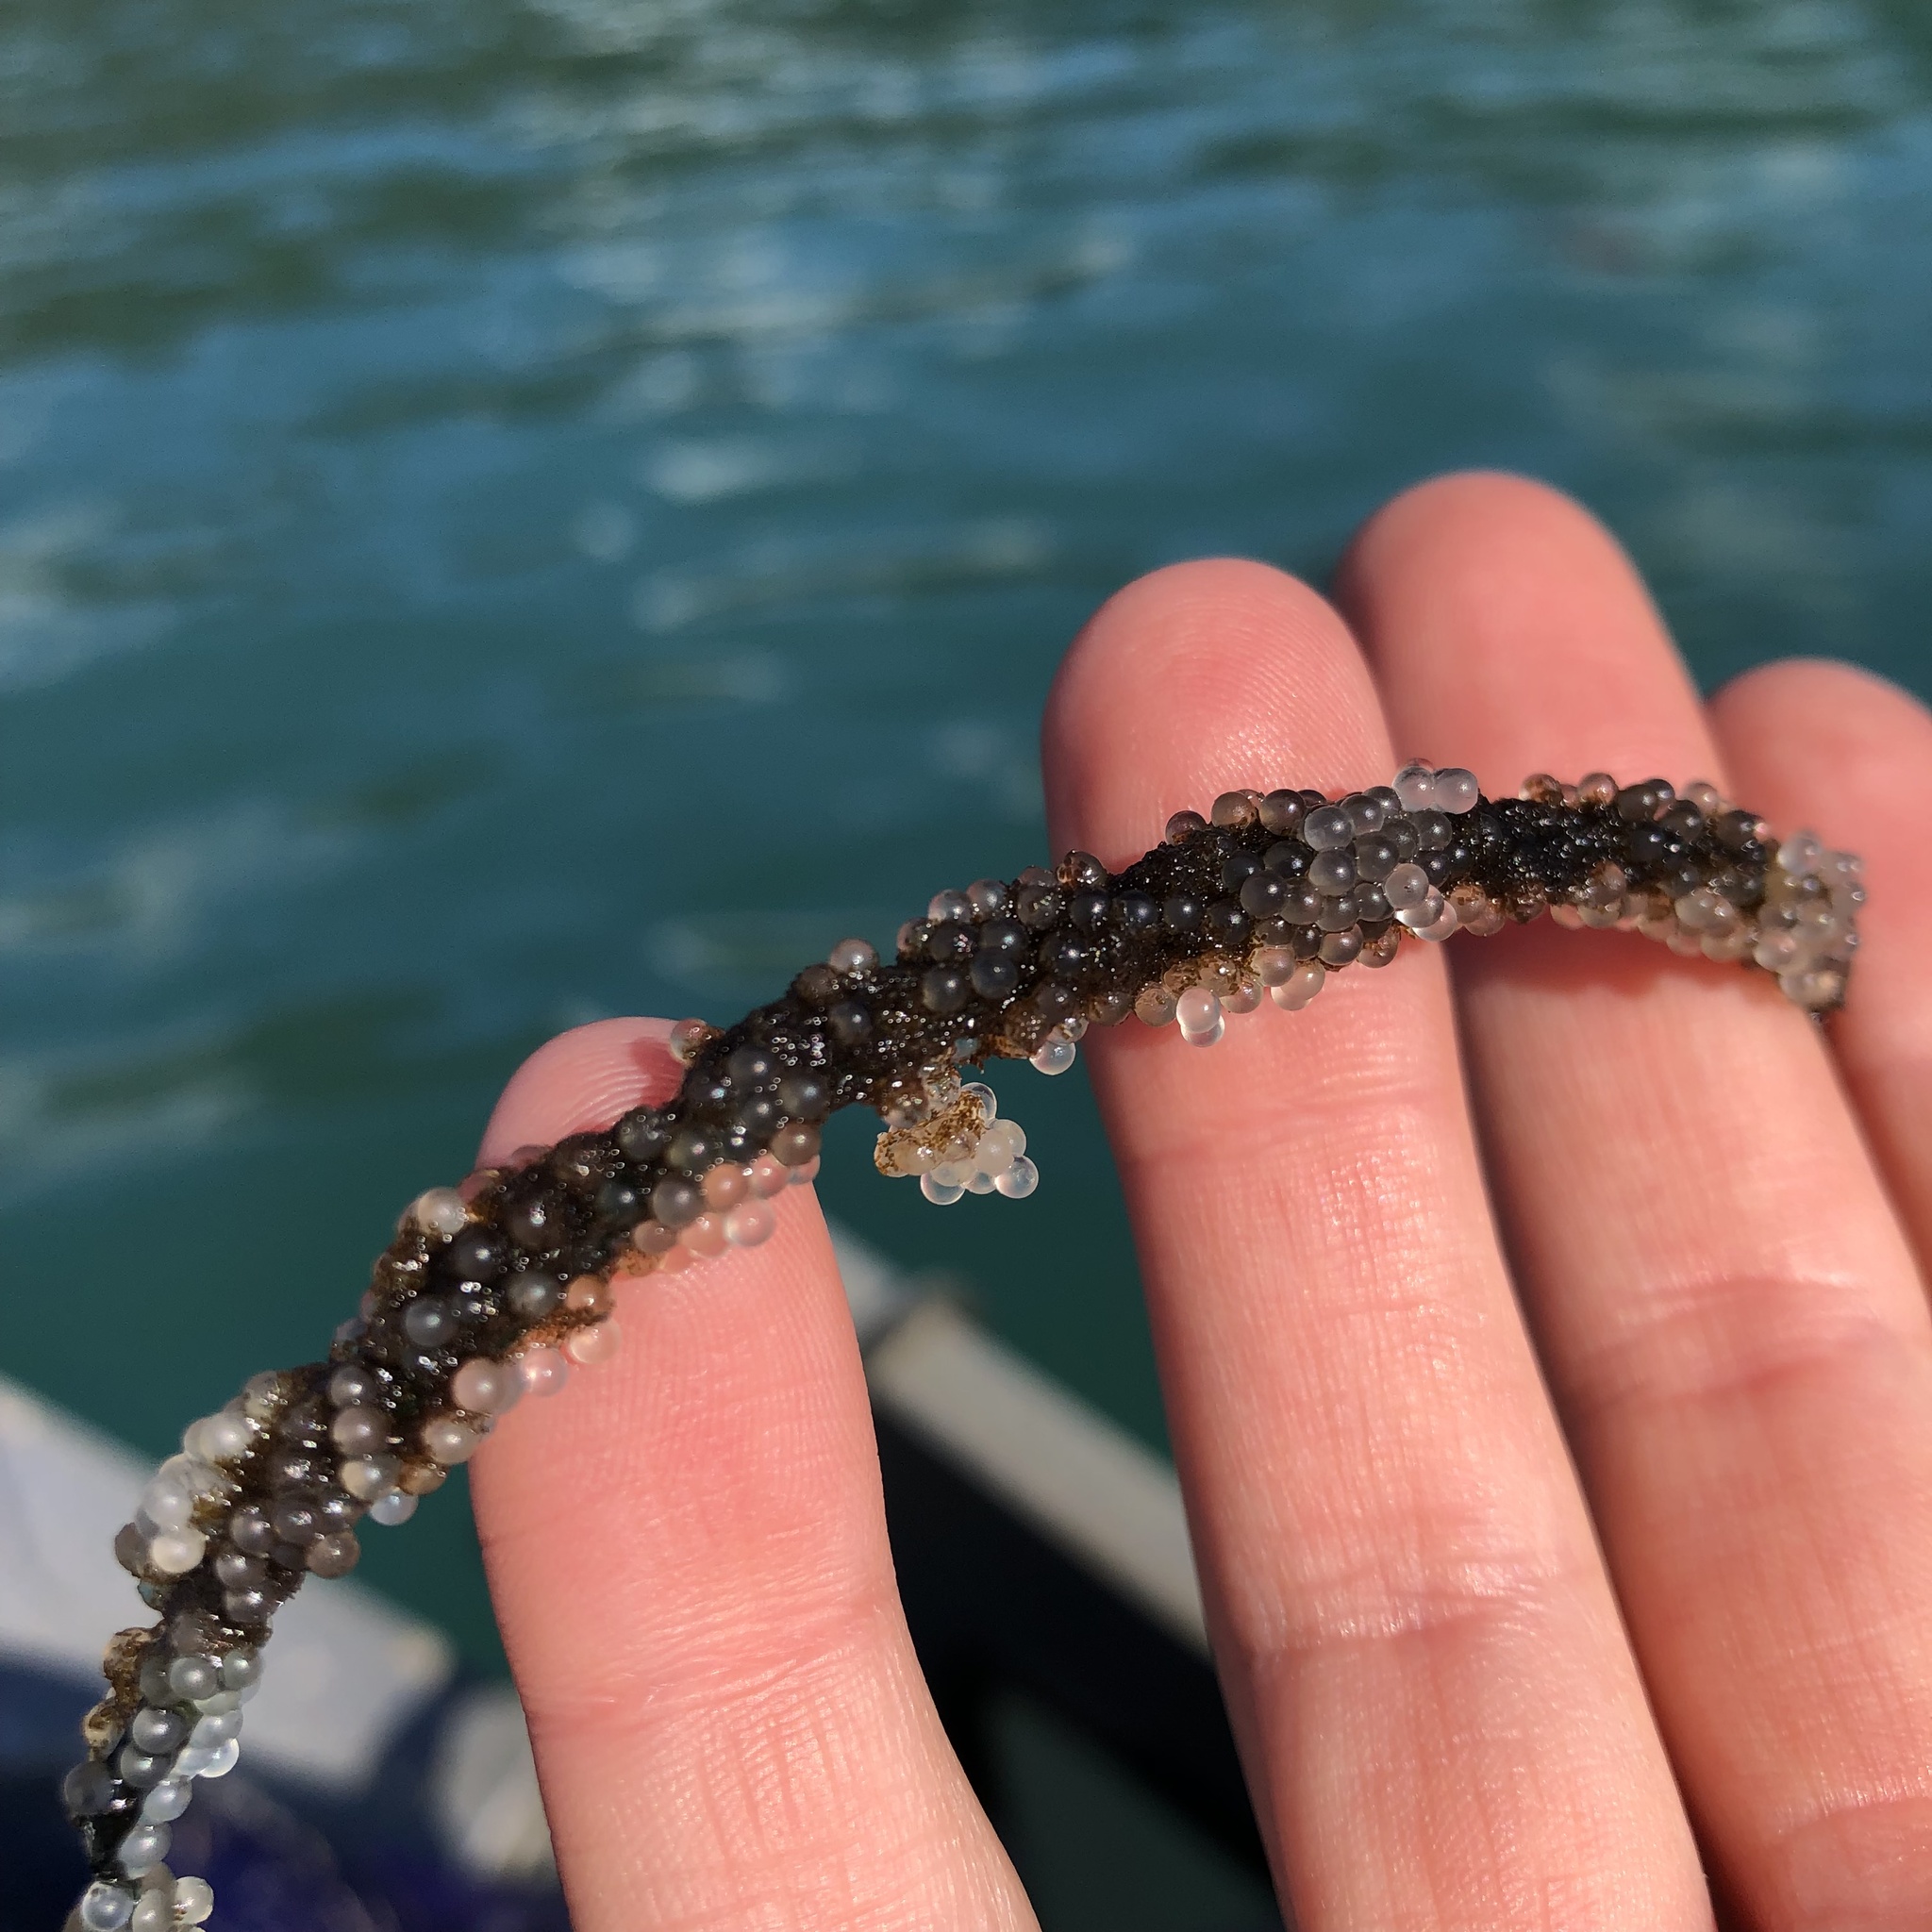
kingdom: Animalia
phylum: Chordata
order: Clupeiformes
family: Clupeidae
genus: Clupea
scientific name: Clupea pallasii
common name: Pacific herring
